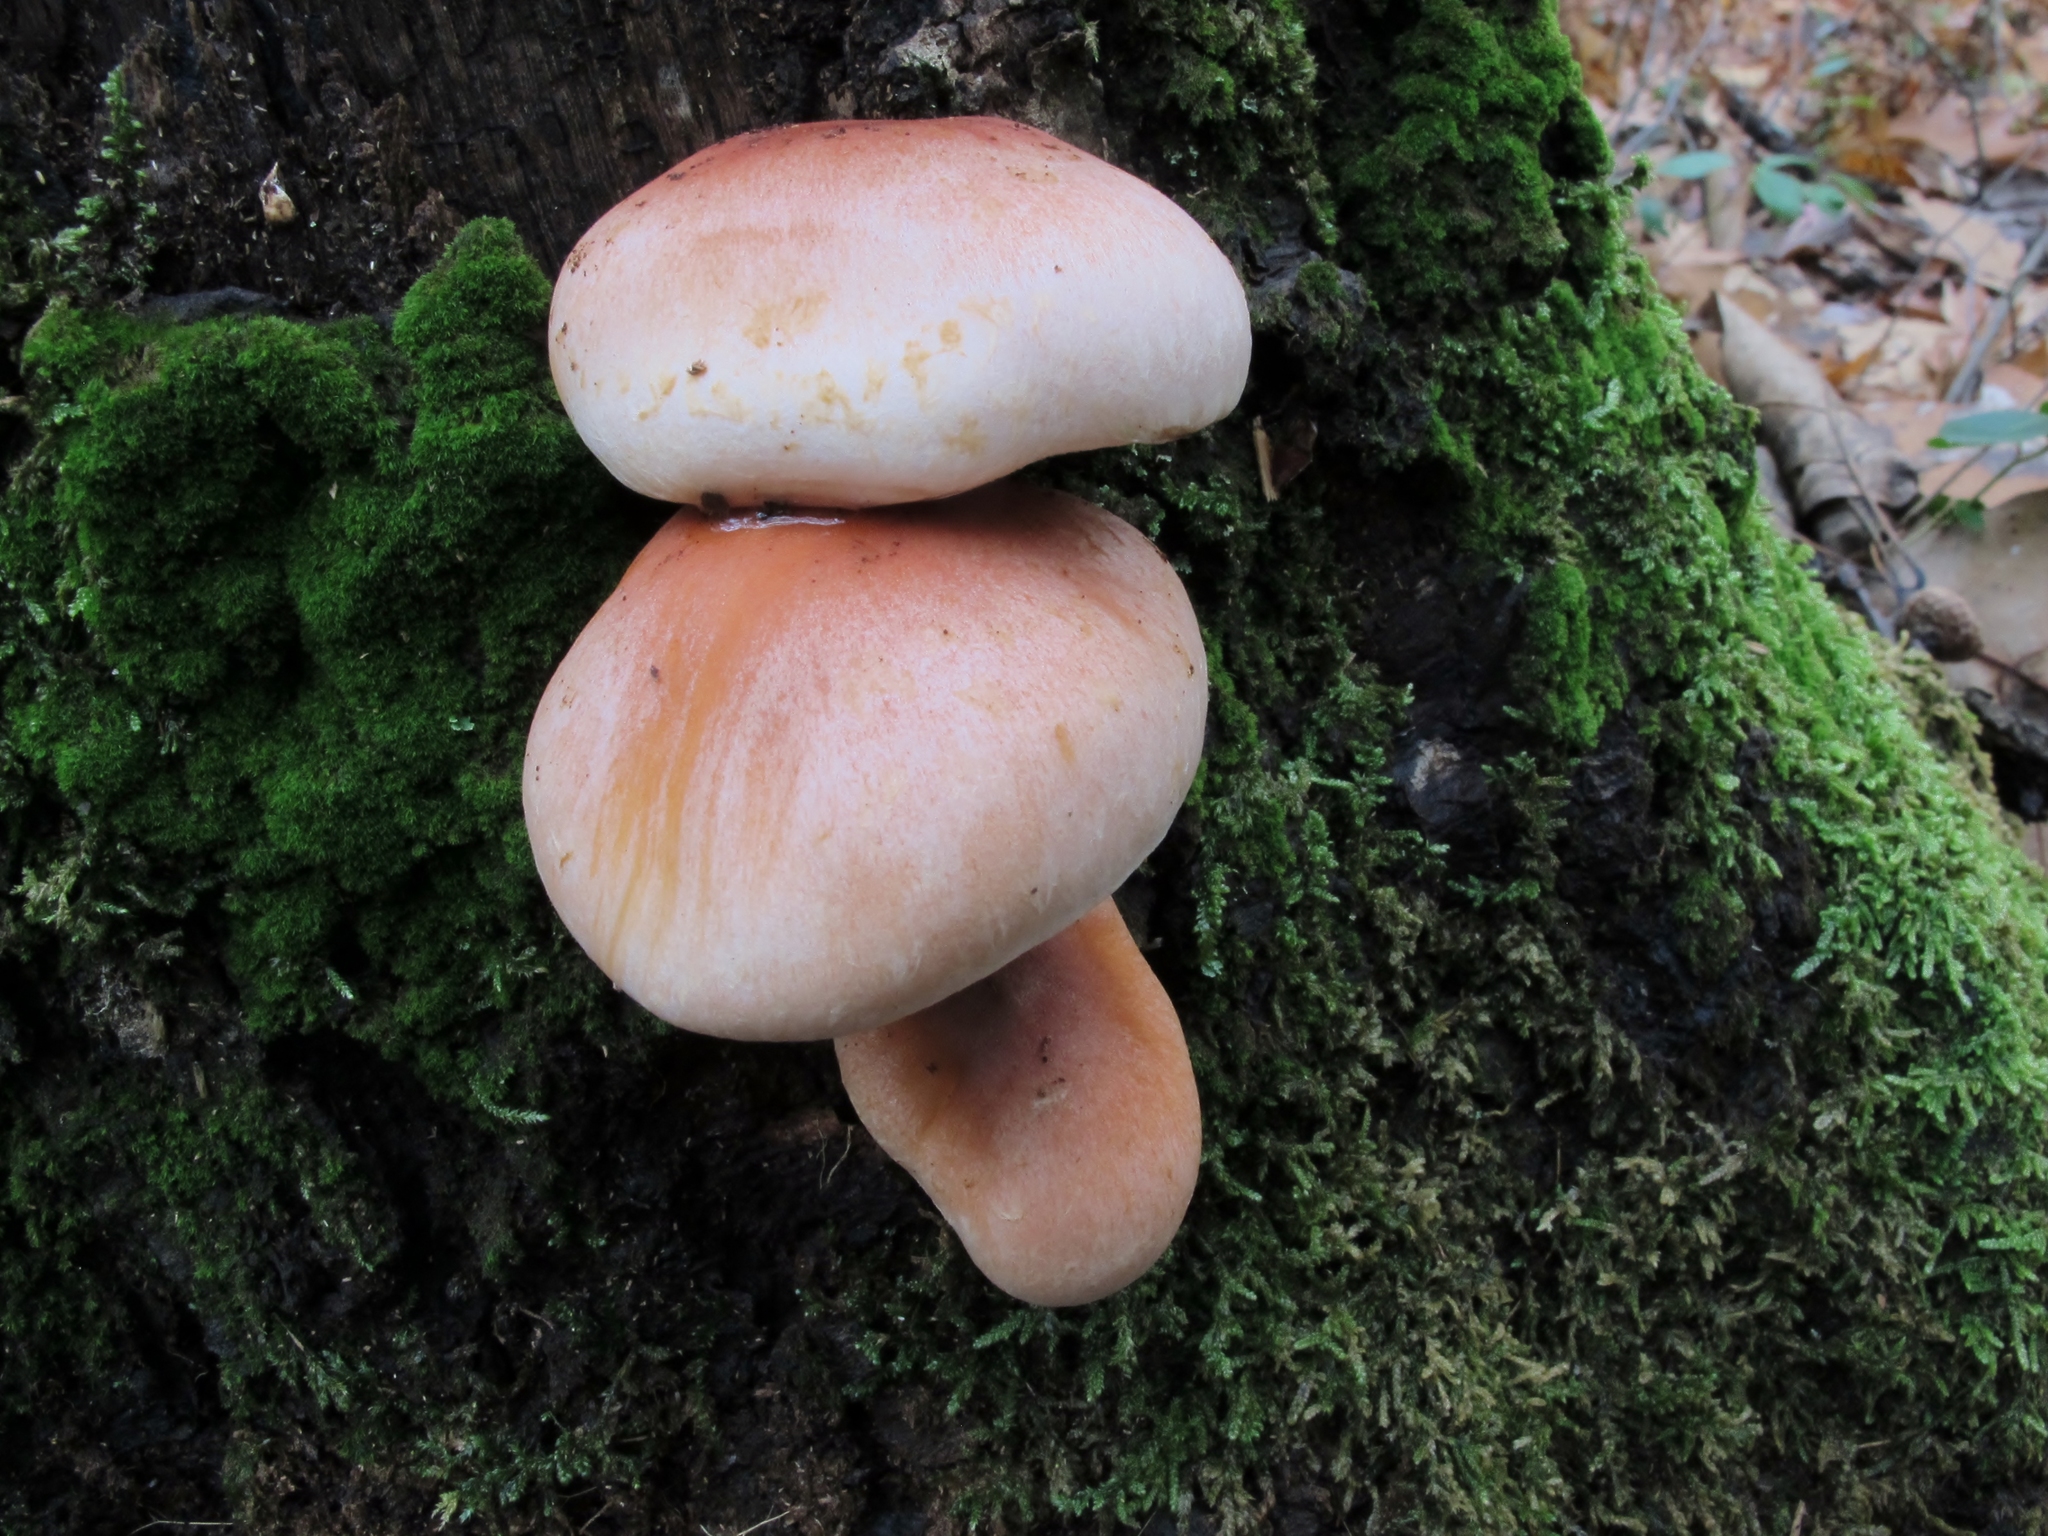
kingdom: Fungi
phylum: Basidiomycota
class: Agaricomycetes
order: Agaricales
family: Strophariaceae
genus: Hypholoma
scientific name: Hypholoma lateritium
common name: Brick caps
